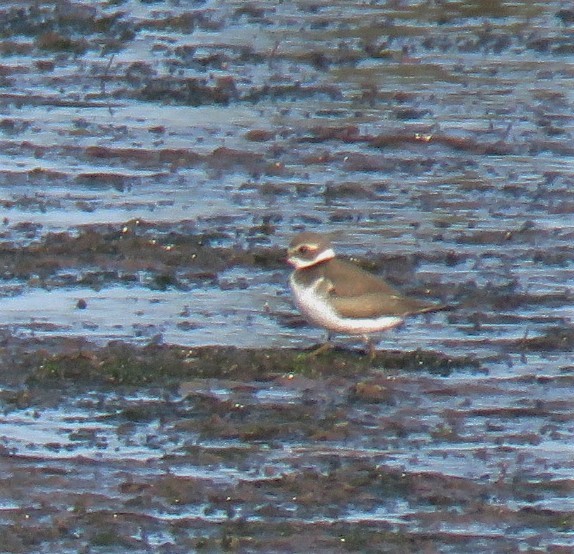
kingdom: Animalia
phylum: Chordata
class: Aves
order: Charadriiformes
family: Charadriidae
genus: Charadrius
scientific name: Charadrius semipalmatus
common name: Semipalmated plover
